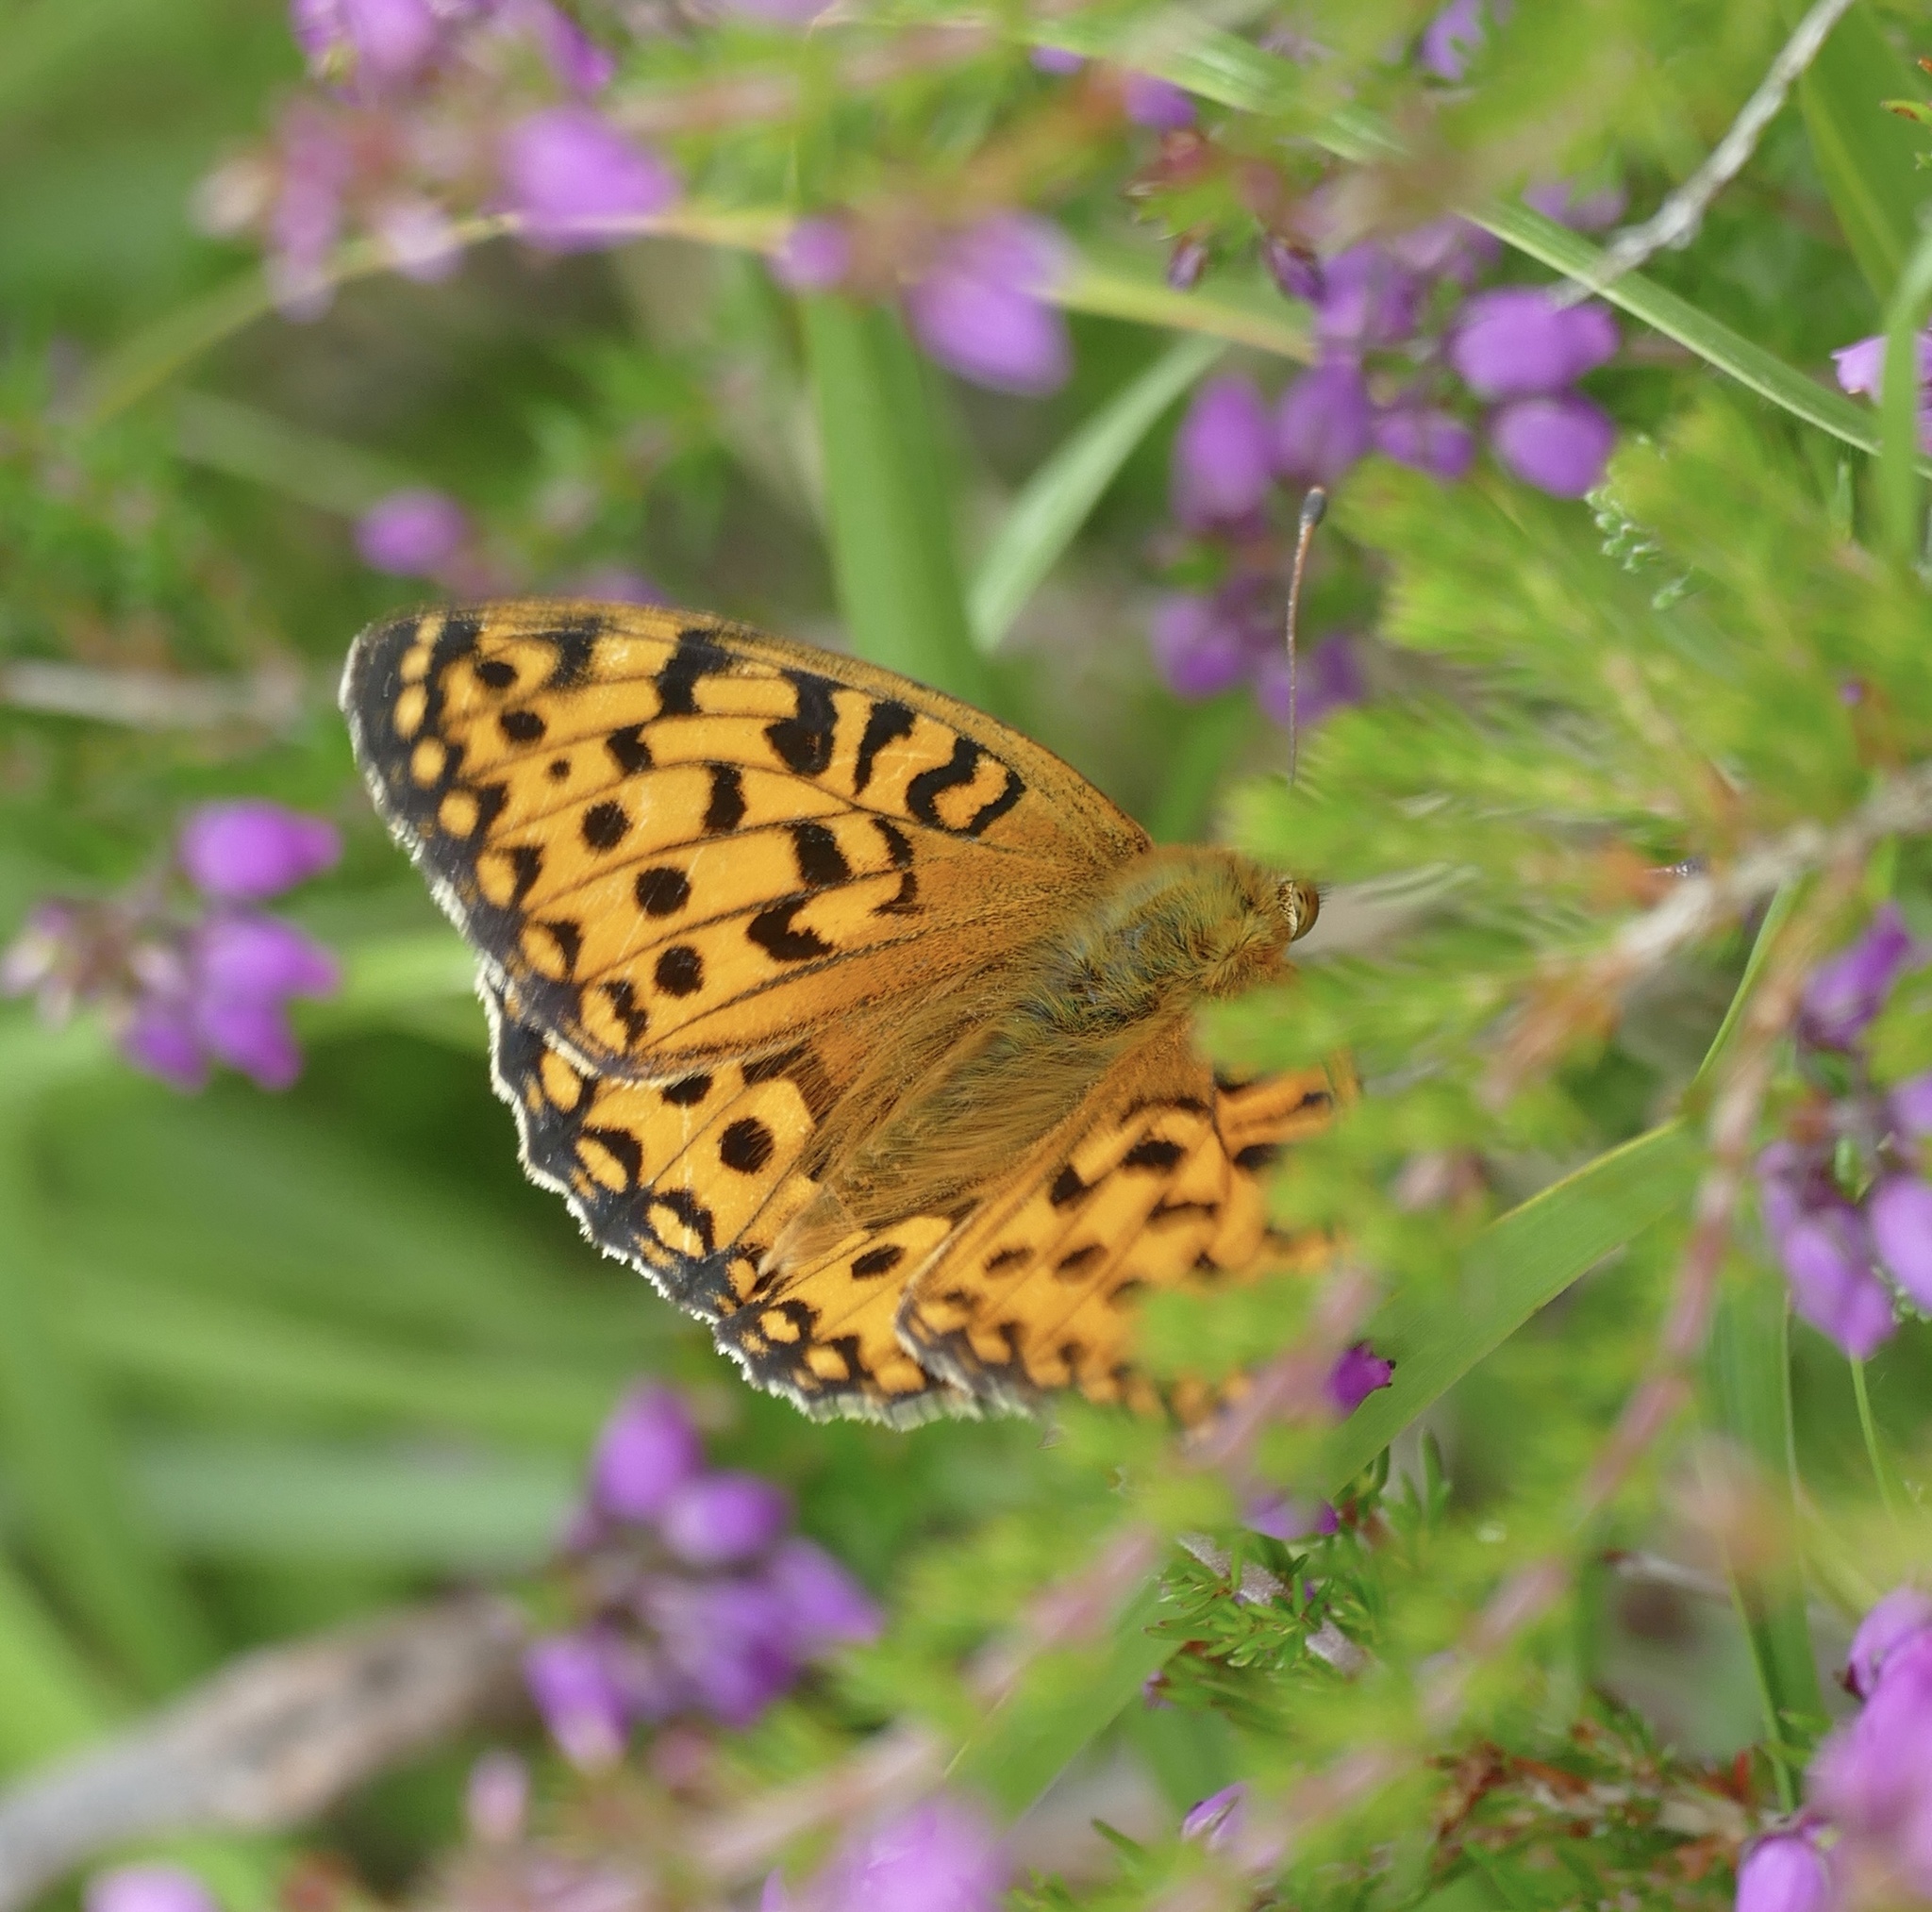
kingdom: Animalia
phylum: Arthropoda
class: Insecta
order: Lepidoptera
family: Nymphalidae
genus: Speyeria
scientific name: Speyeria aglaja
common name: Dark green fritillary
